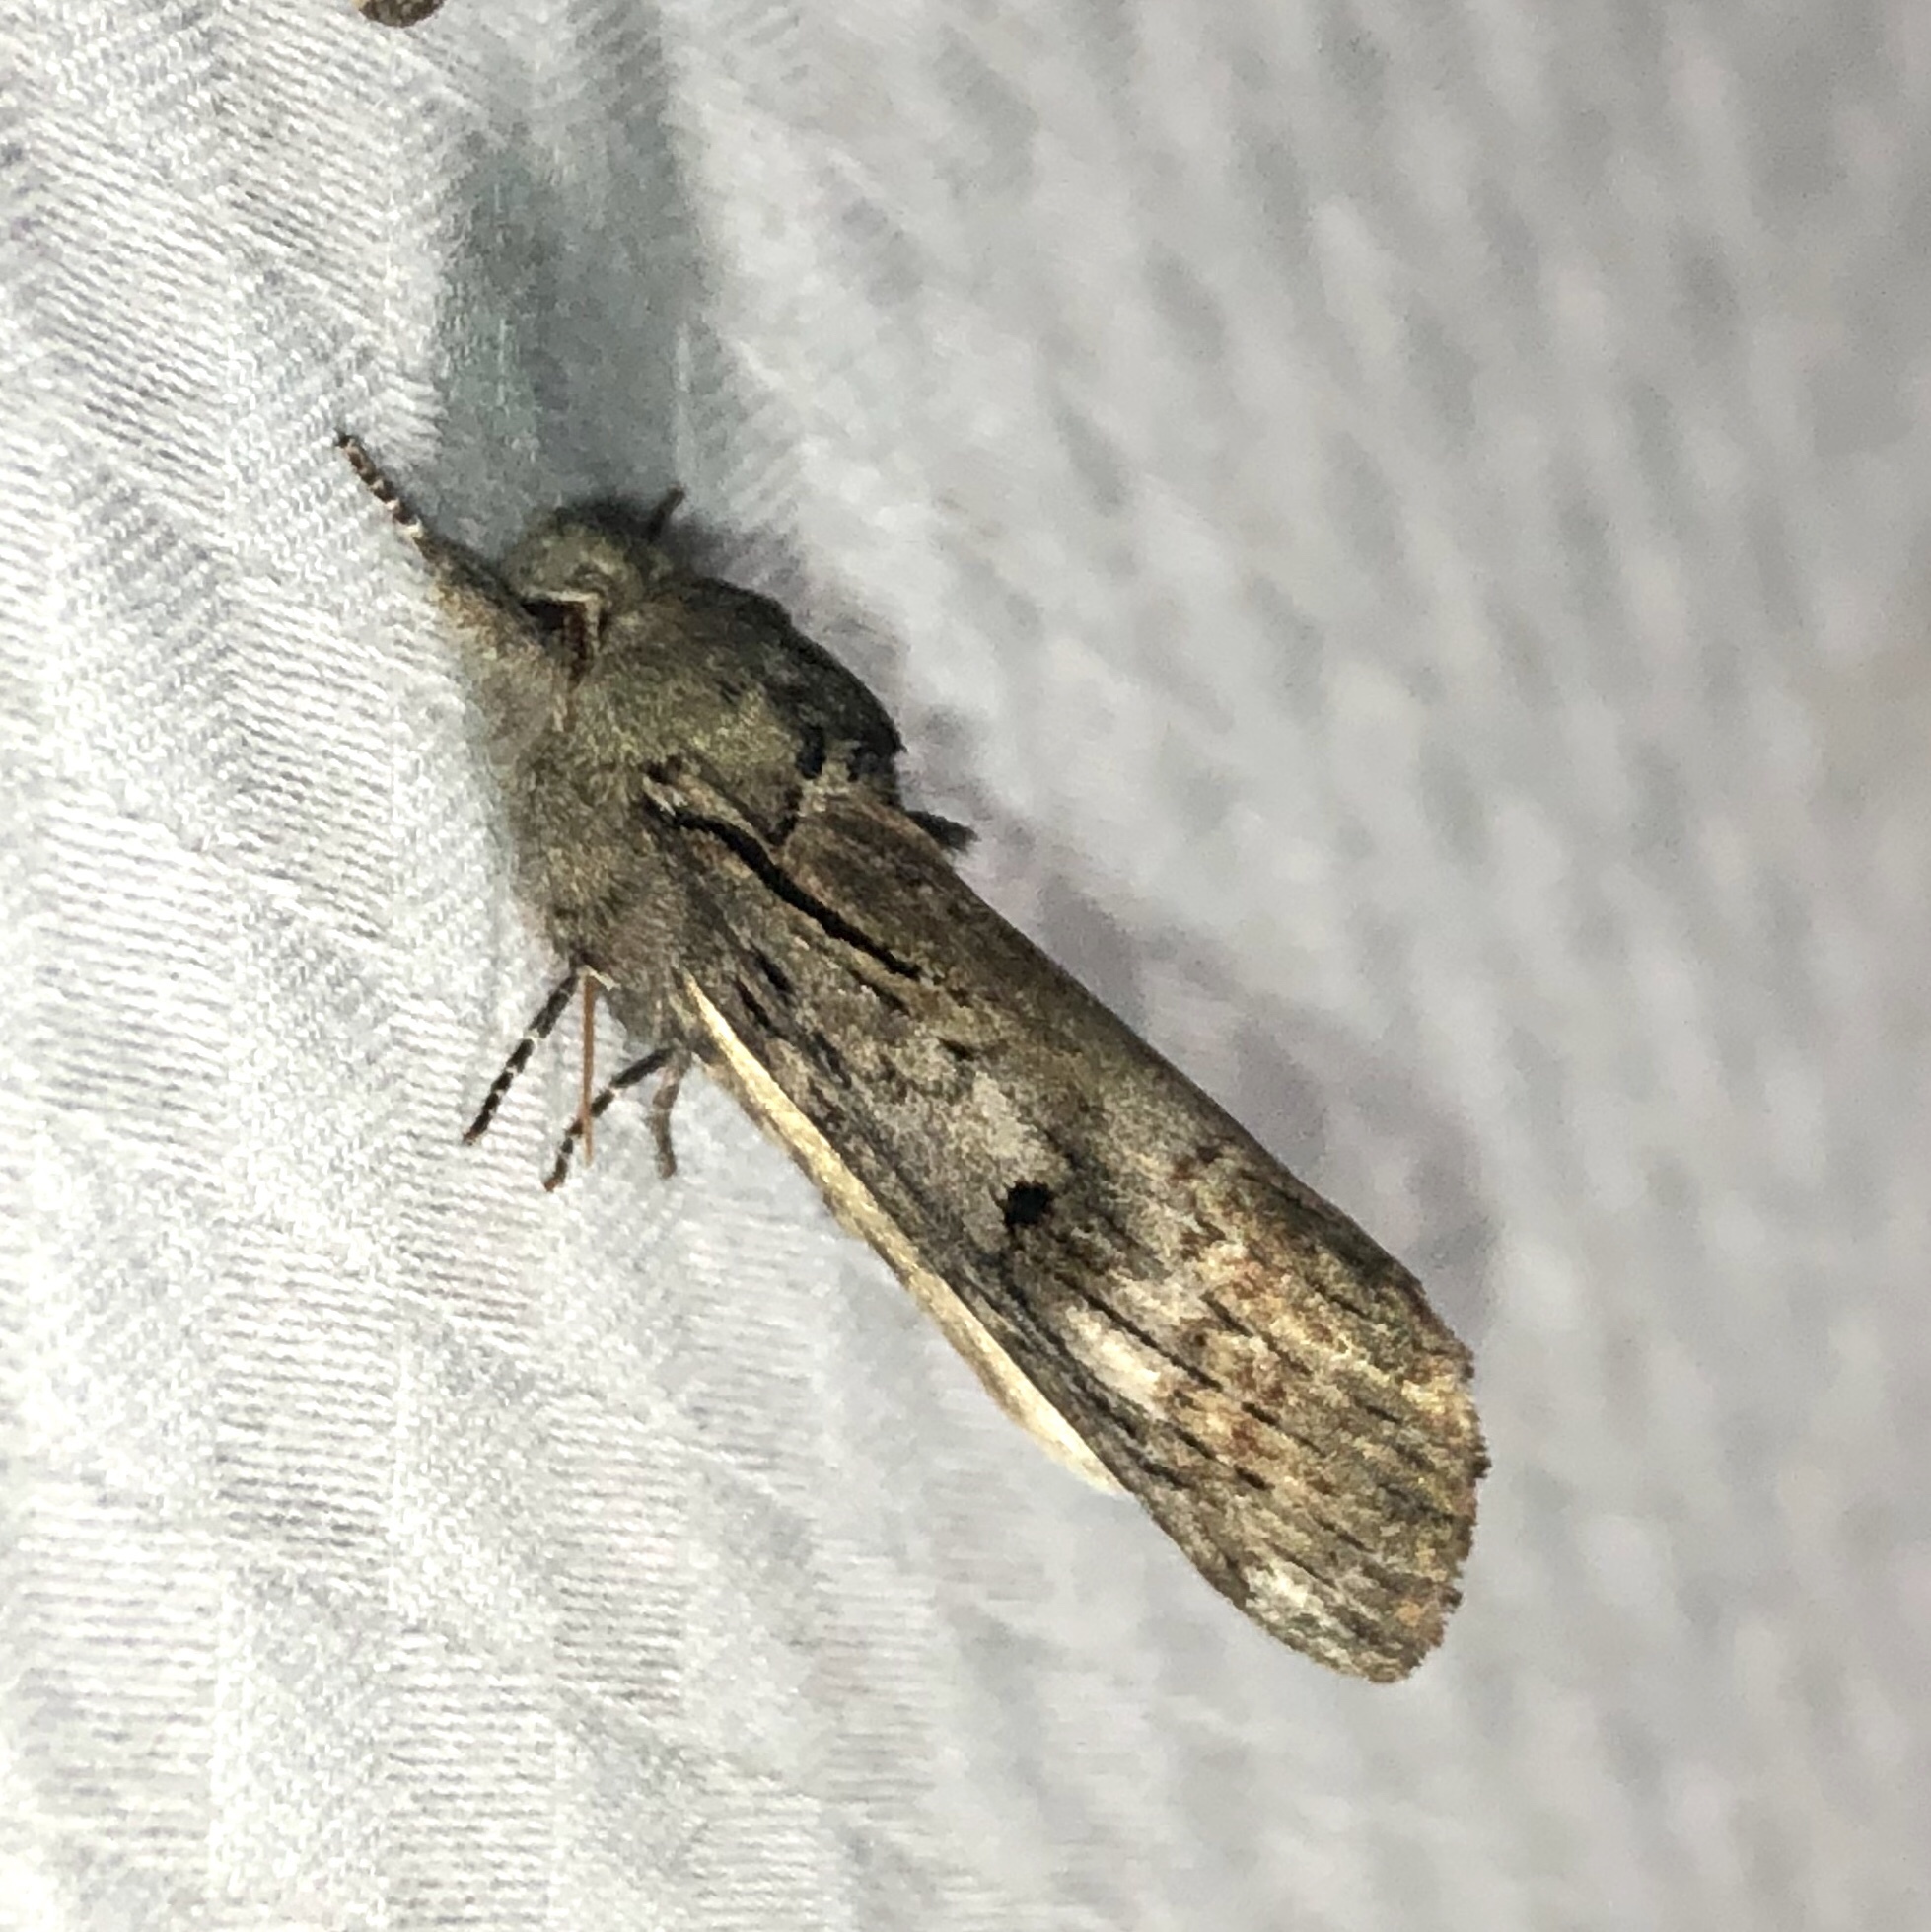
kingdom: Animalia
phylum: Arthropoda
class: Insecta
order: Lepidoptera
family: Notodontidae
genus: Schizura
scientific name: Schizura
